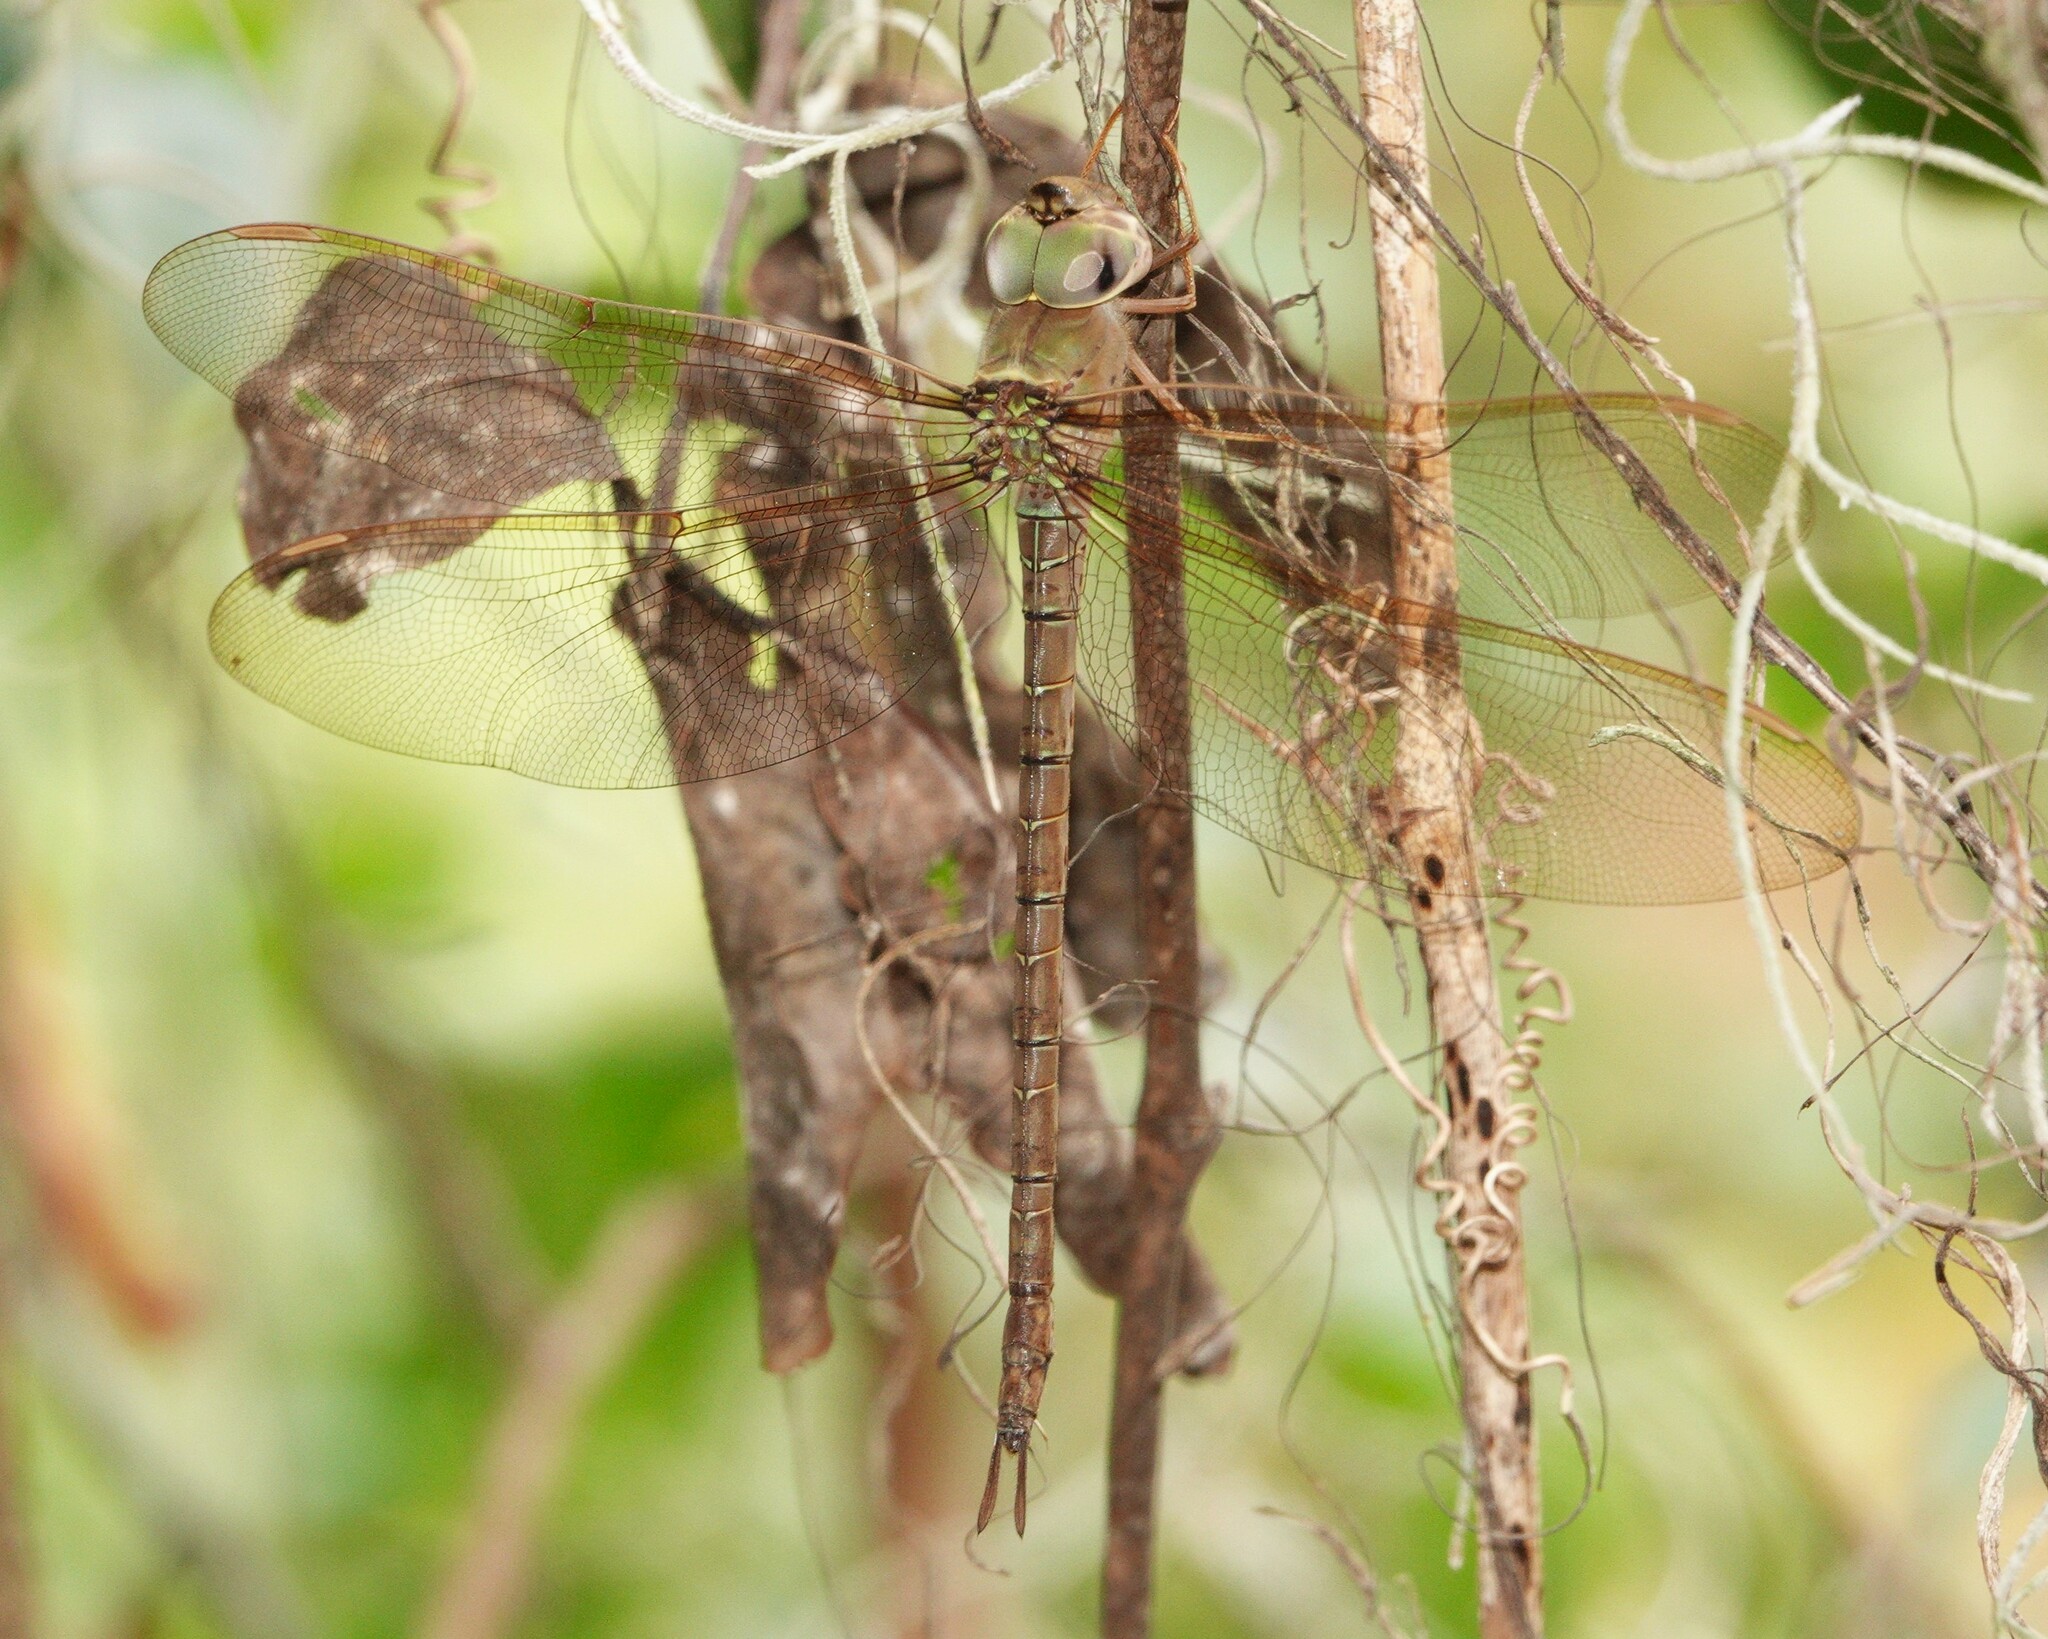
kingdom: Animalia
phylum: Arthropoda
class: Insecta
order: Odonata
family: Aeshnidae
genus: Gynacantha
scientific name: Gynacantha nervosa
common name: Twilight darner
